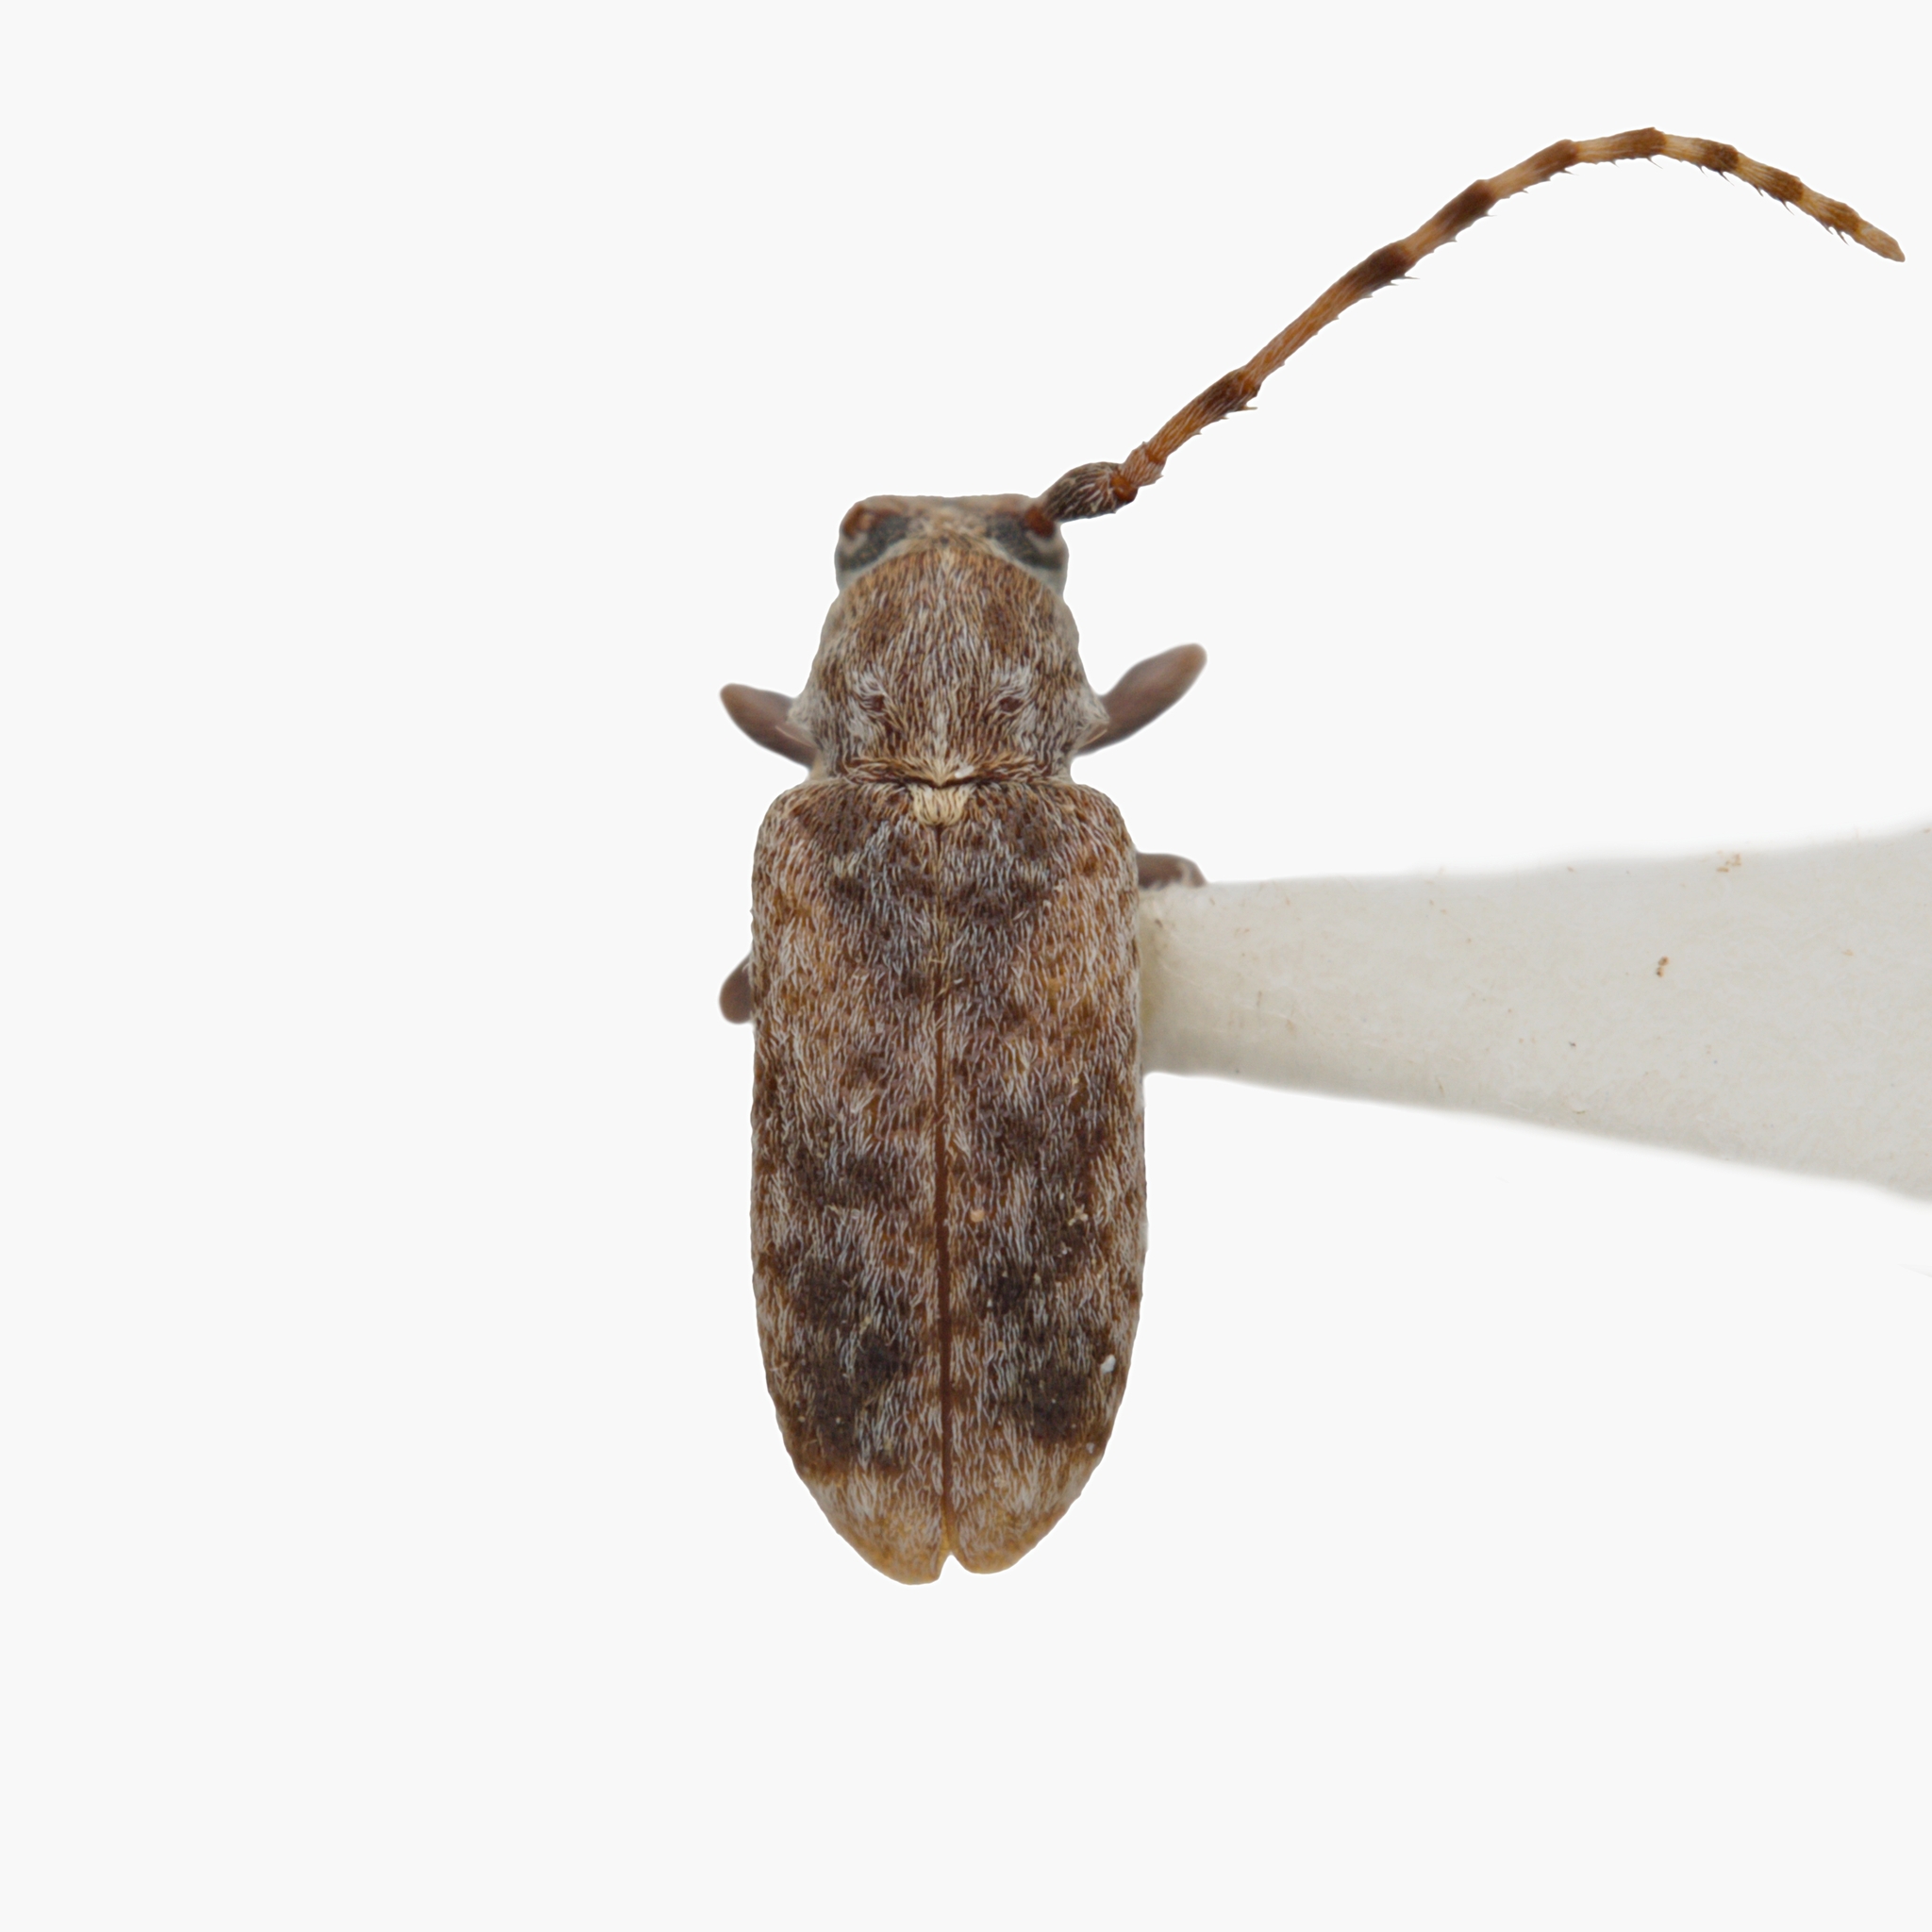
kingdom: Animalia
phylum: Arthropoda
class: Insecta
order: Coleoptera
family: Cerambycidae
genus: Charlesella
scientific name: Charlesella
